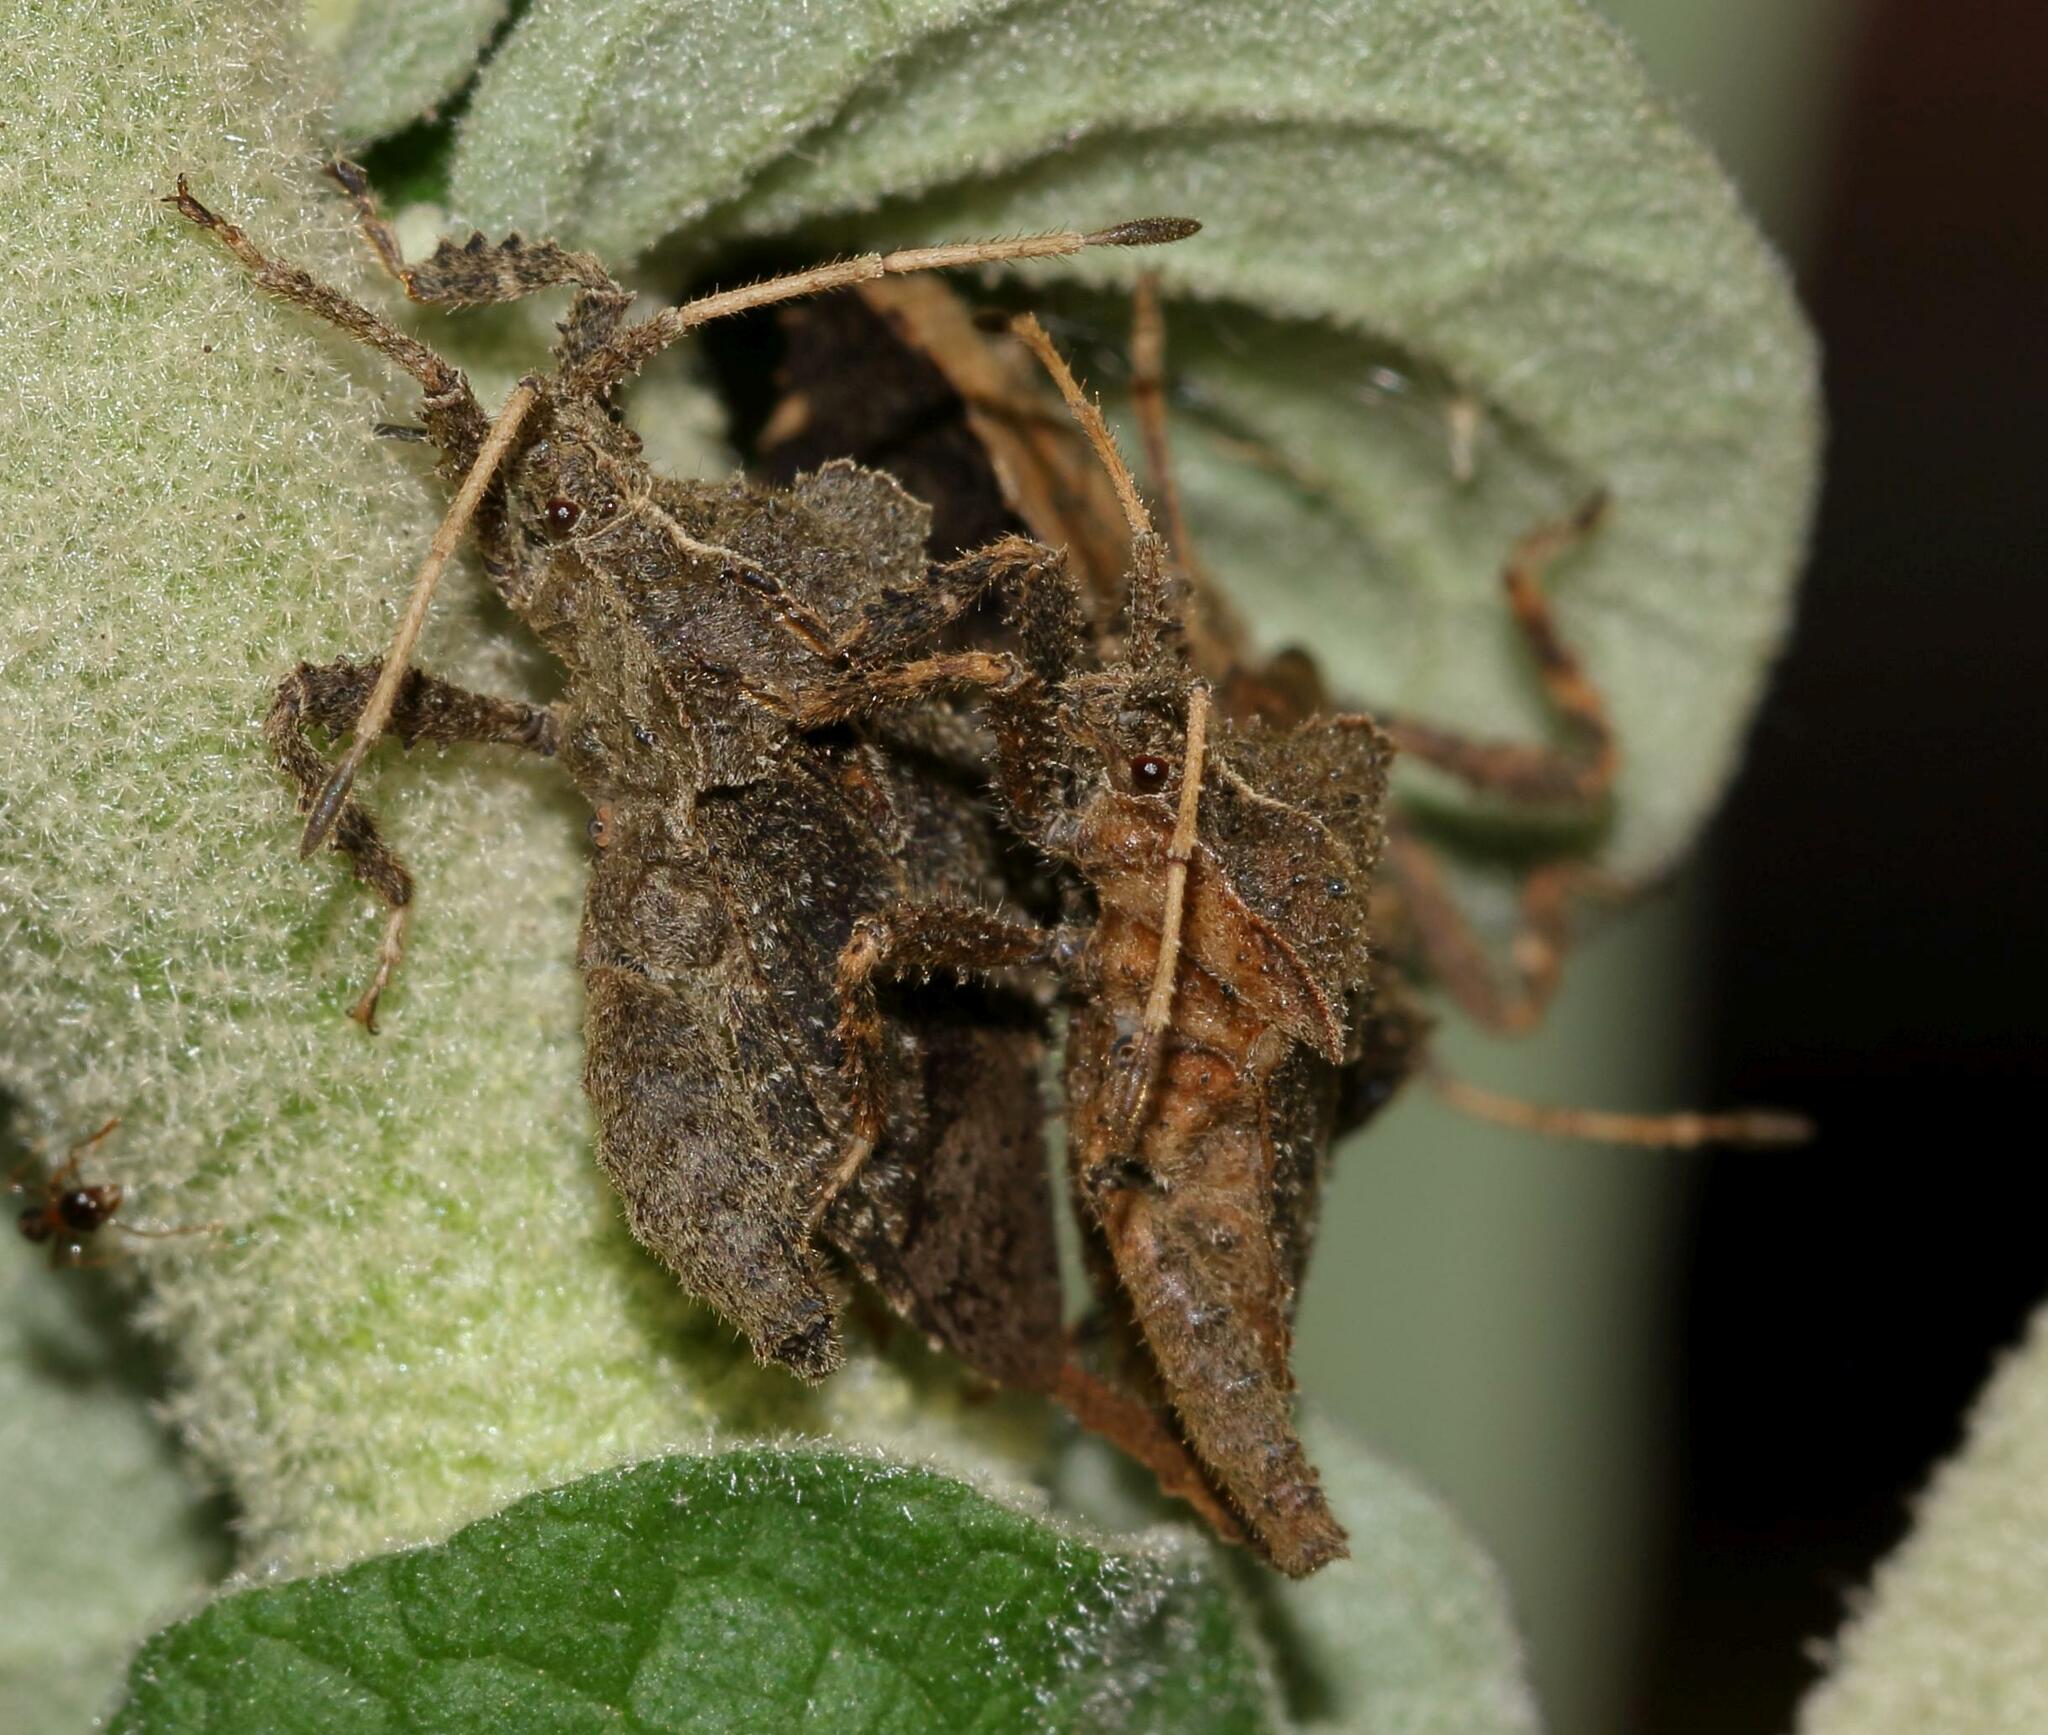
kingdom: Plantae
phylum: Tracheophyta
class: Magnoliopsida
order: Solanales
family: Solanaceae
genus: Solanum
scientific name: Solanum mauritianum
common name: Earleaf nightshade
